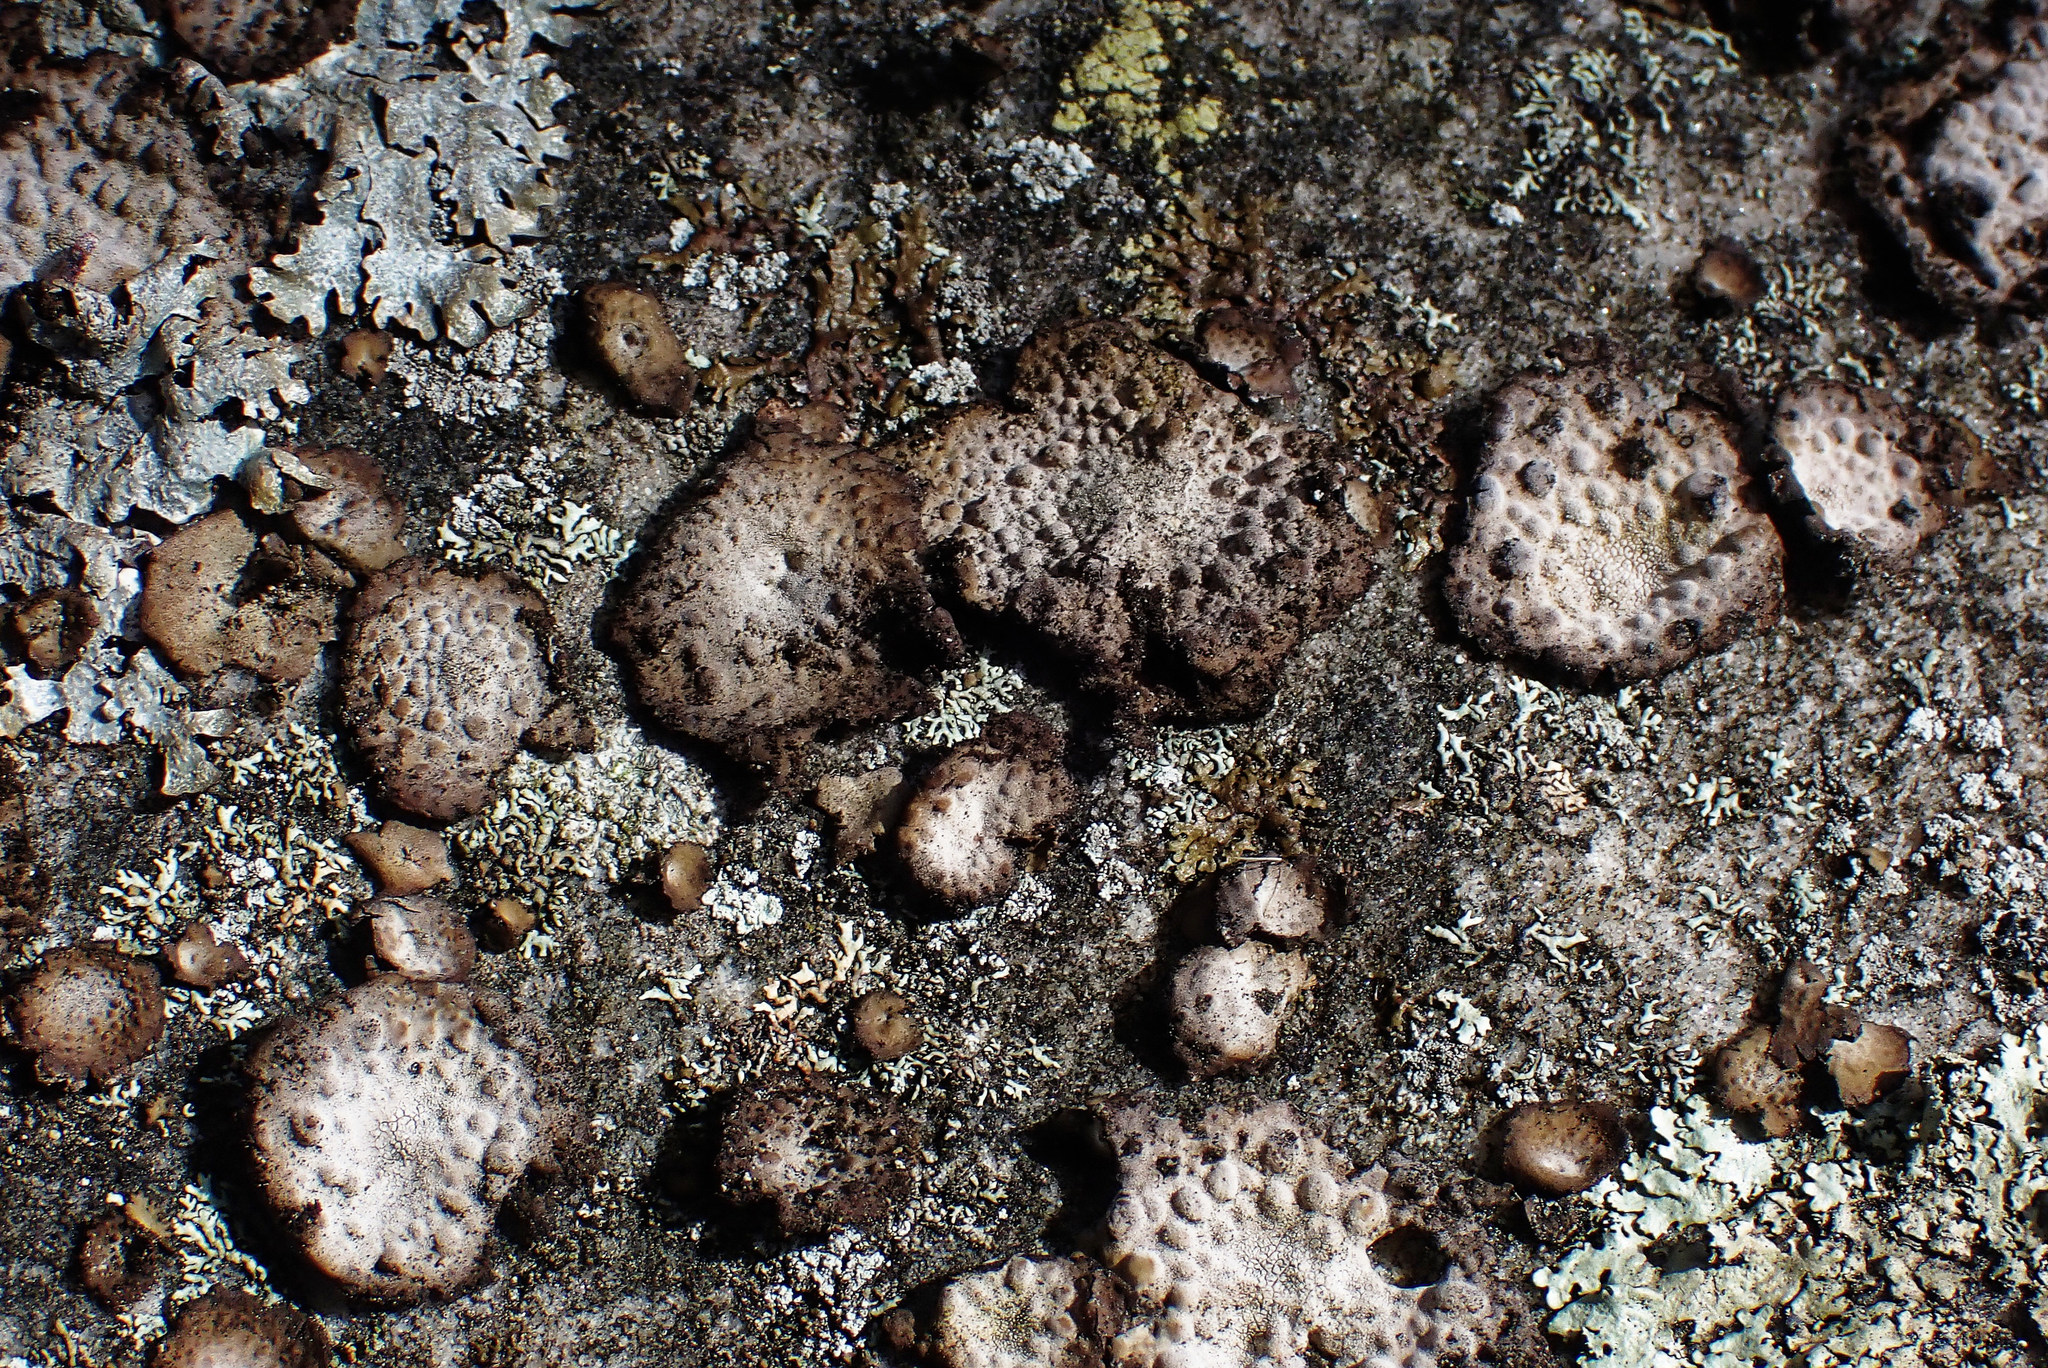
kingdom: Fungi
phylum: Ascomycota
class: Lecanoromycetes
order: Umbilicariales
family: Umbilicariaceae
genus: Lasallia
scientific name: Lasallia pustulata
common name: Blistered toadskin lichen
